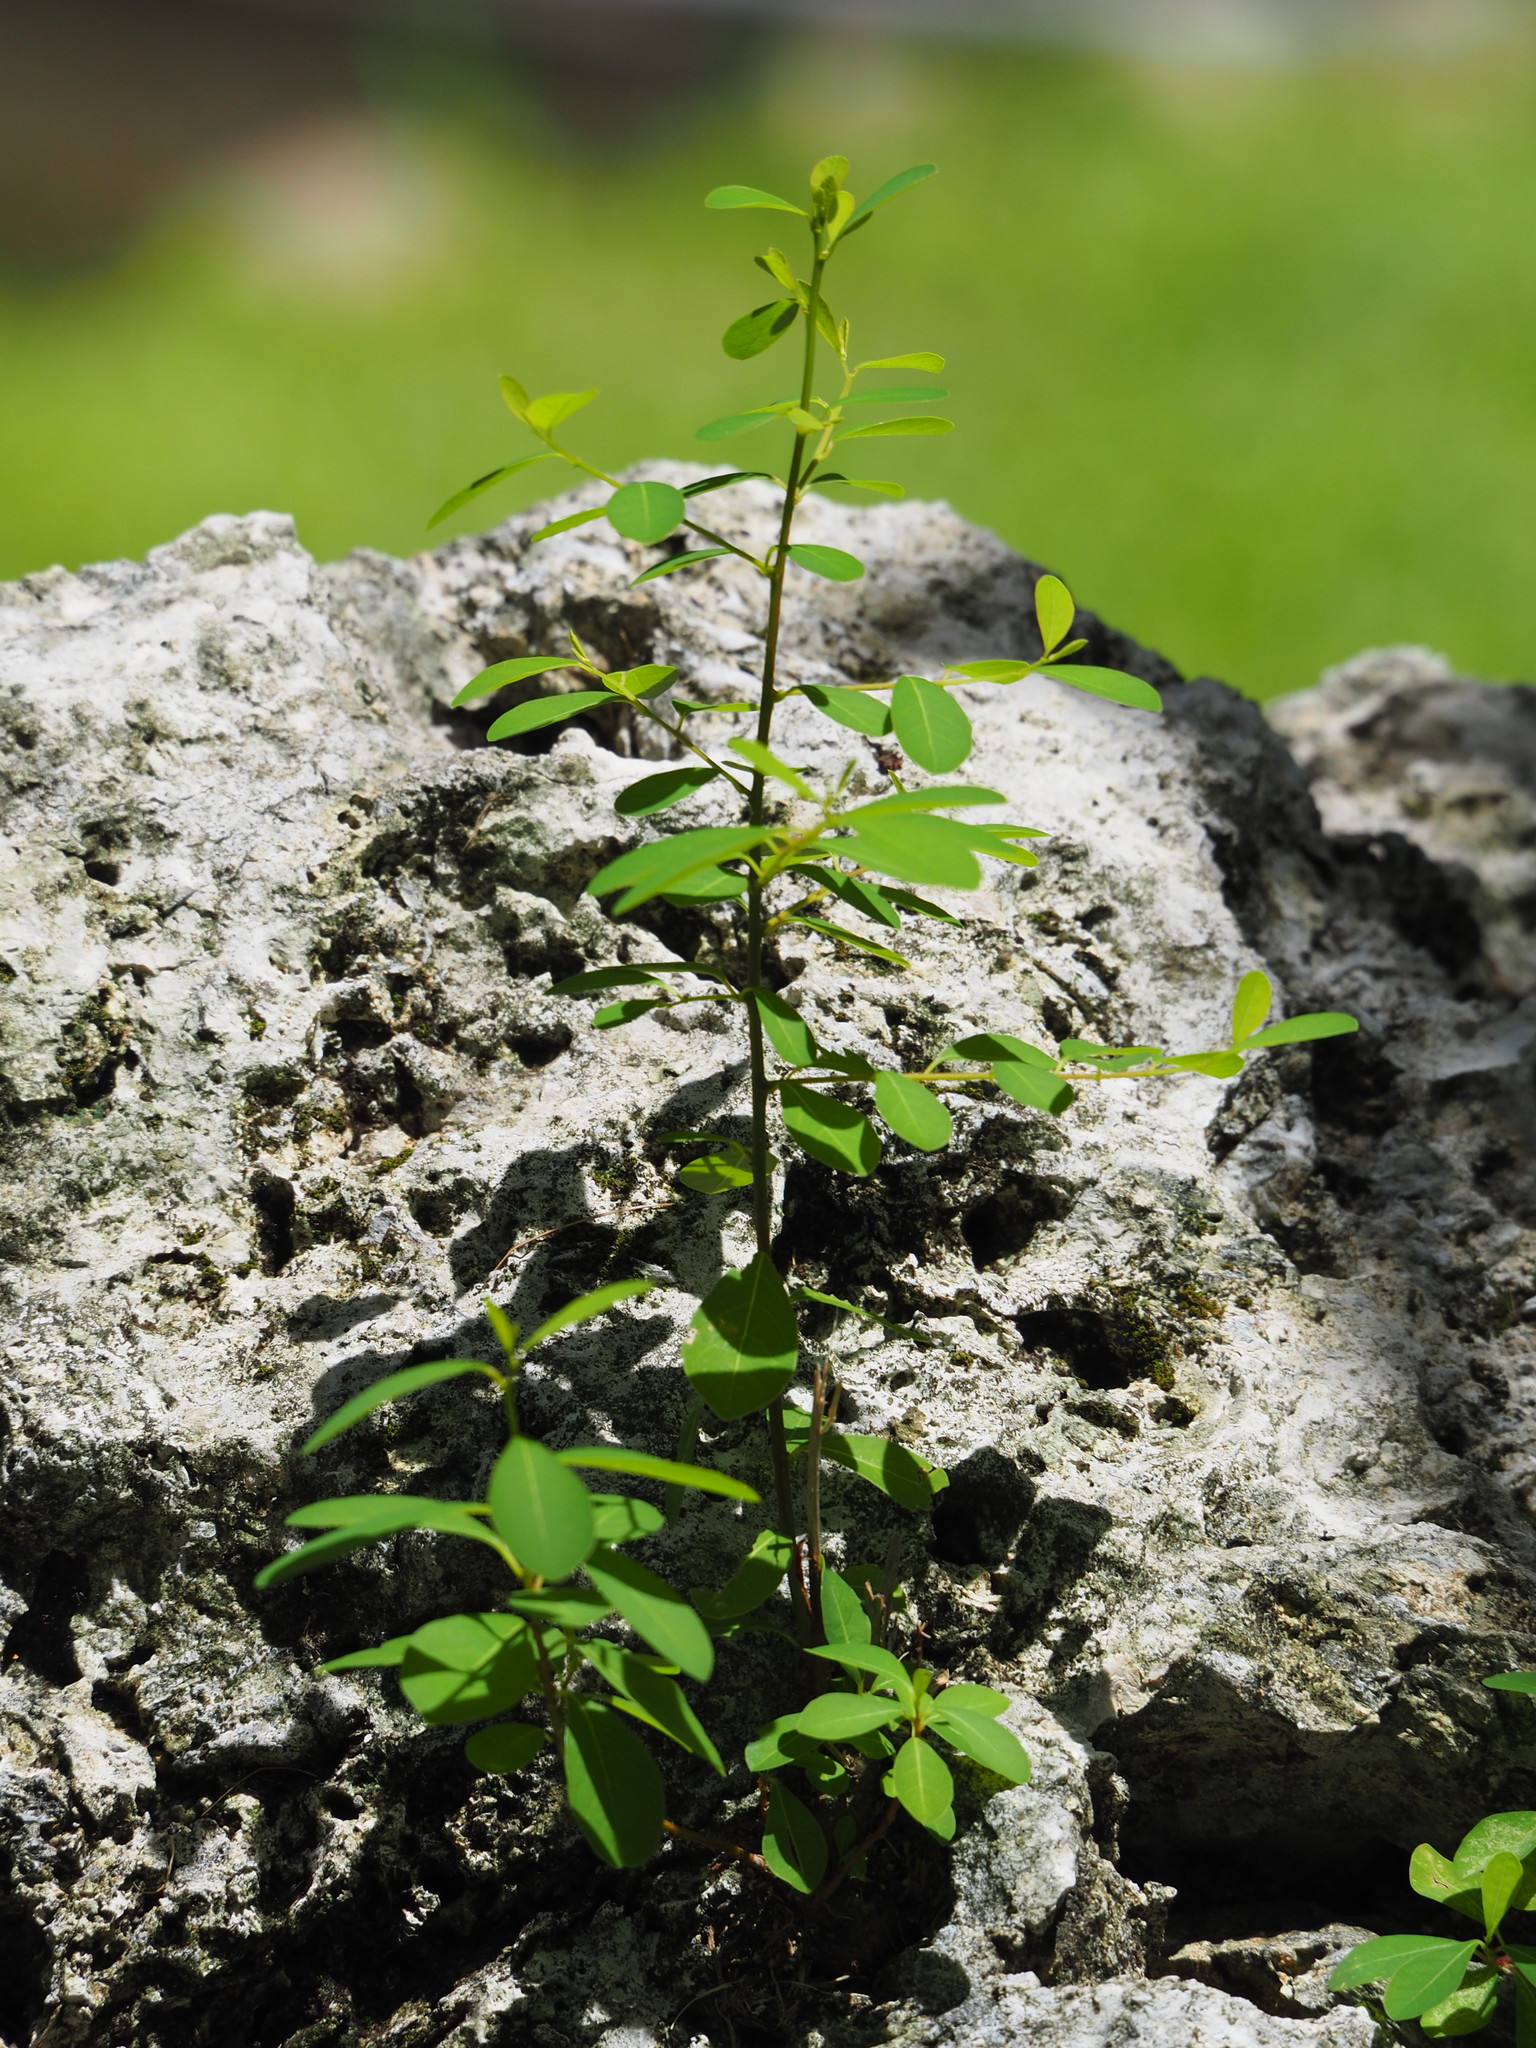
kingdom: Plantae
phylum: Tracheophyta
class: Magnoliopsida
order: Malpighiales
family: Phyllanthaceae
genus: Flueggea
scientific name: Flueggea virosa
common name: Common bushweed
